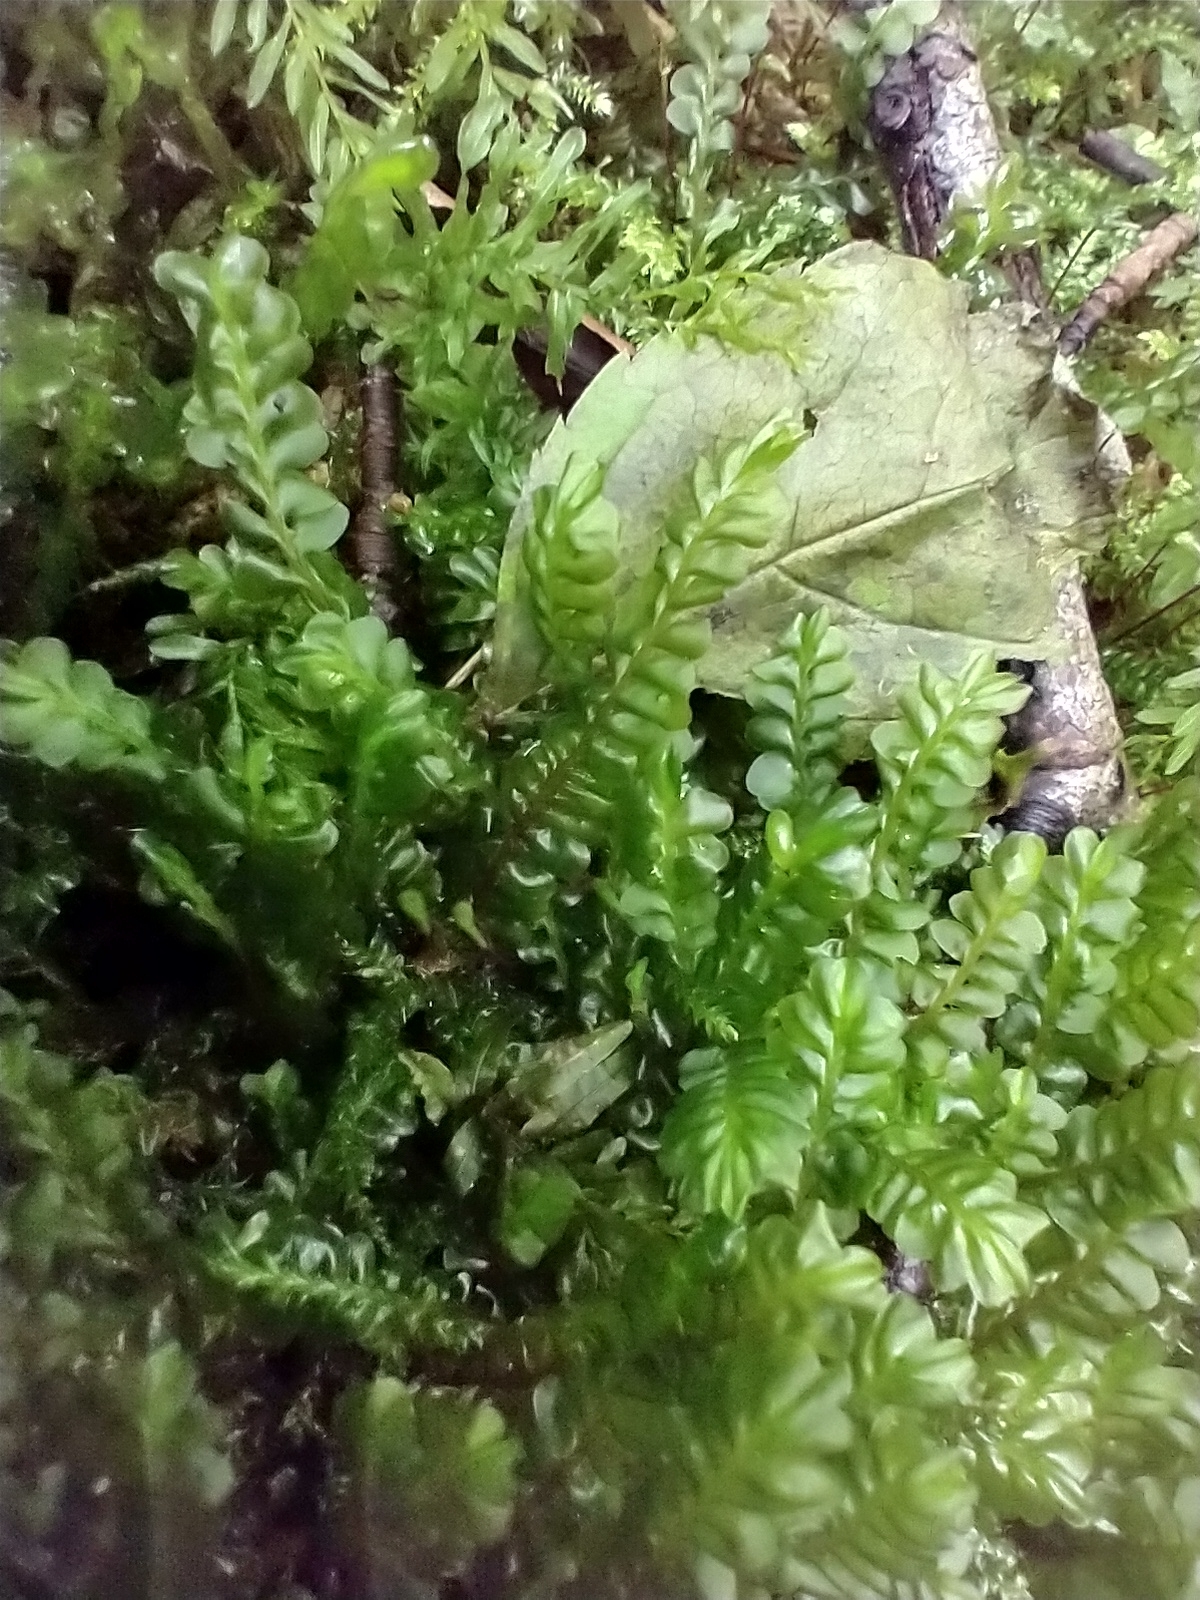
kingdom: Plantae
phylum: Marchantiophyta
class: Jungermanniopsida
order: Jungermanniales
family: Plagiochilaceae
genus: Plagiochila
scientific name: Plagiochila asplenioides
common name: Greater featherwort
